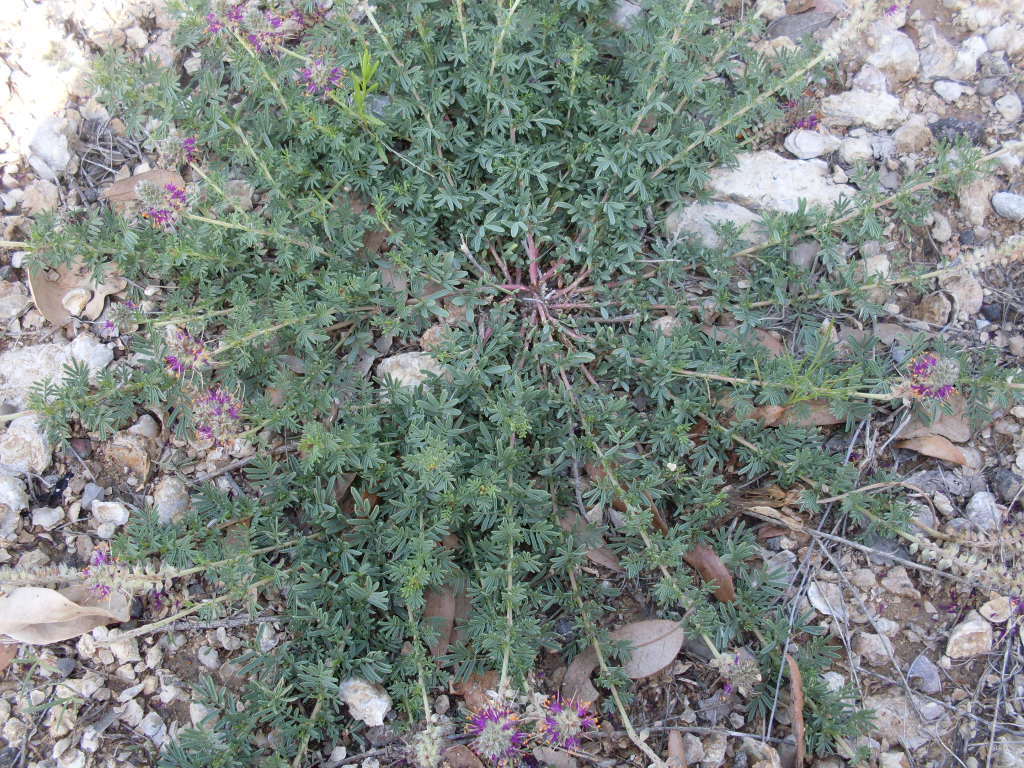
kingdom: Plantae
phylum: Tracheophyta
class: Magnoliopsida
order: Fabales
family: Fabaceae
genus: Dalea
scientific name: Dalea reverchonii
